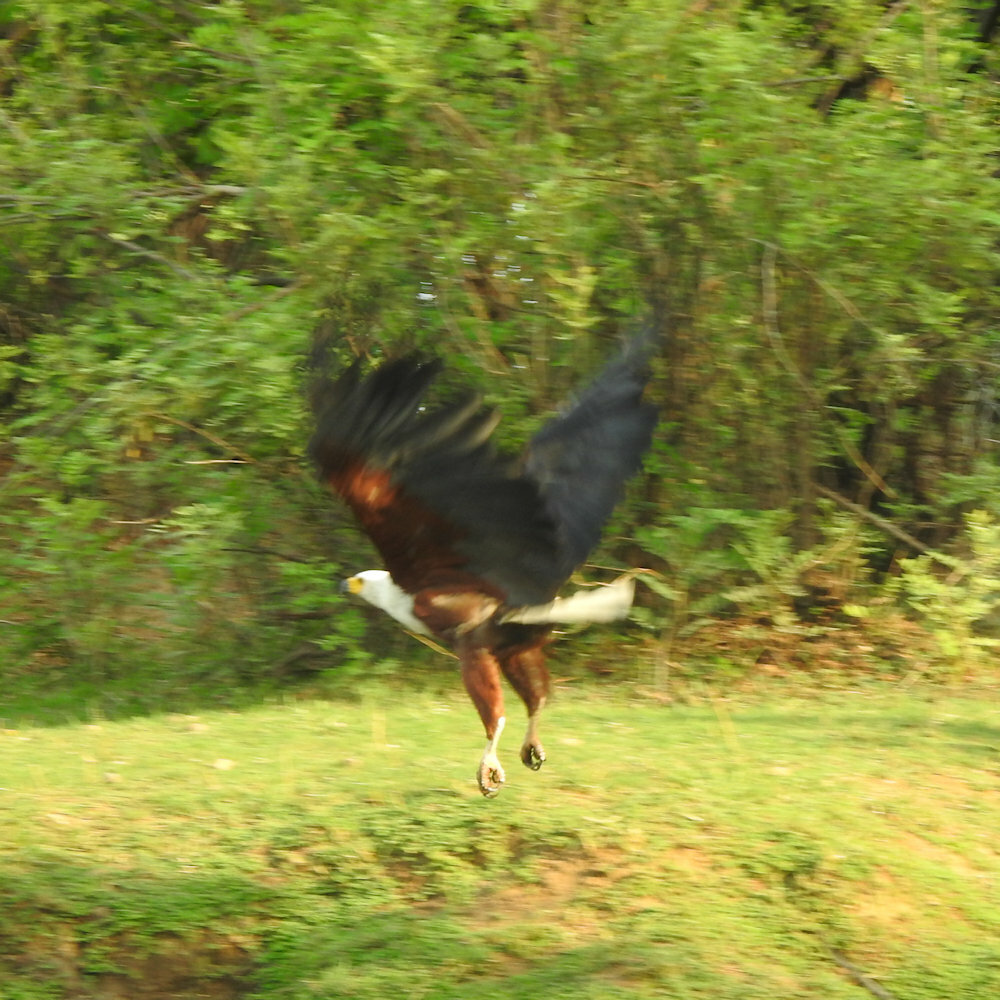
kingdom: Animalia
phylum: Chordata
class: Aves
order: Accipitriformes
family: Accipitridae
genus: Haliaeetus
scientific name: Haliaeetus vocifer
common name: African fish eagle
